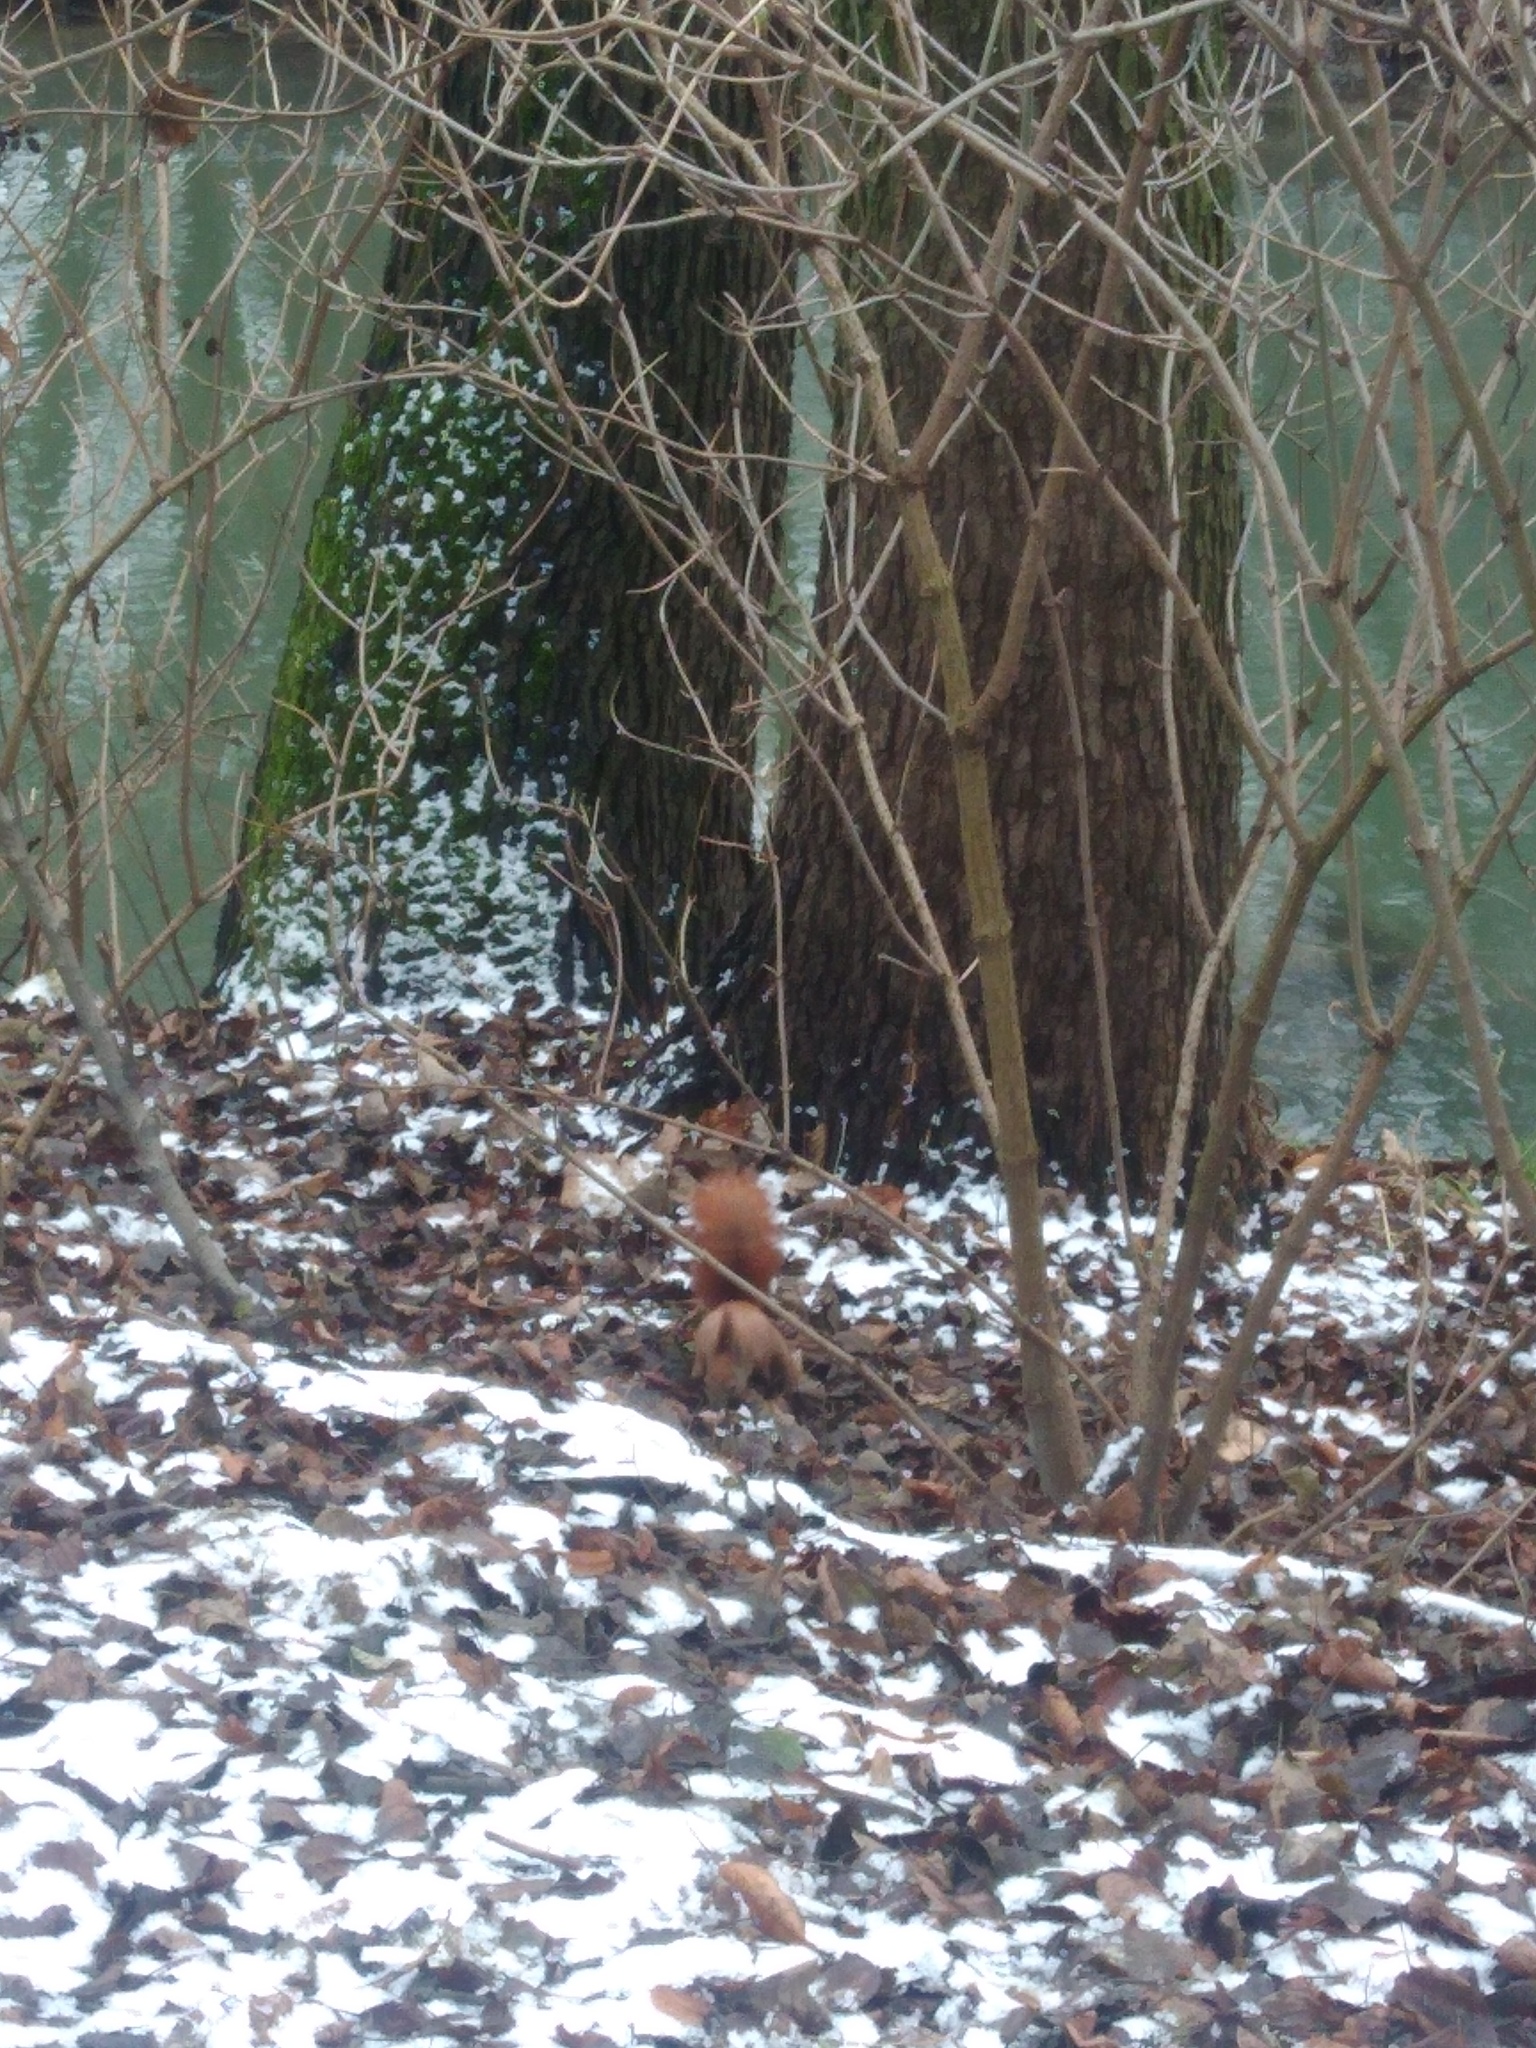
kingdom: Animalia
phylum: Chordata
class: Mammalia
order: Rodentia
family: Sciuridae
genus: Sciurus
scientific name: Sciurus vulgaris
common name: Eurasian red squirrel
